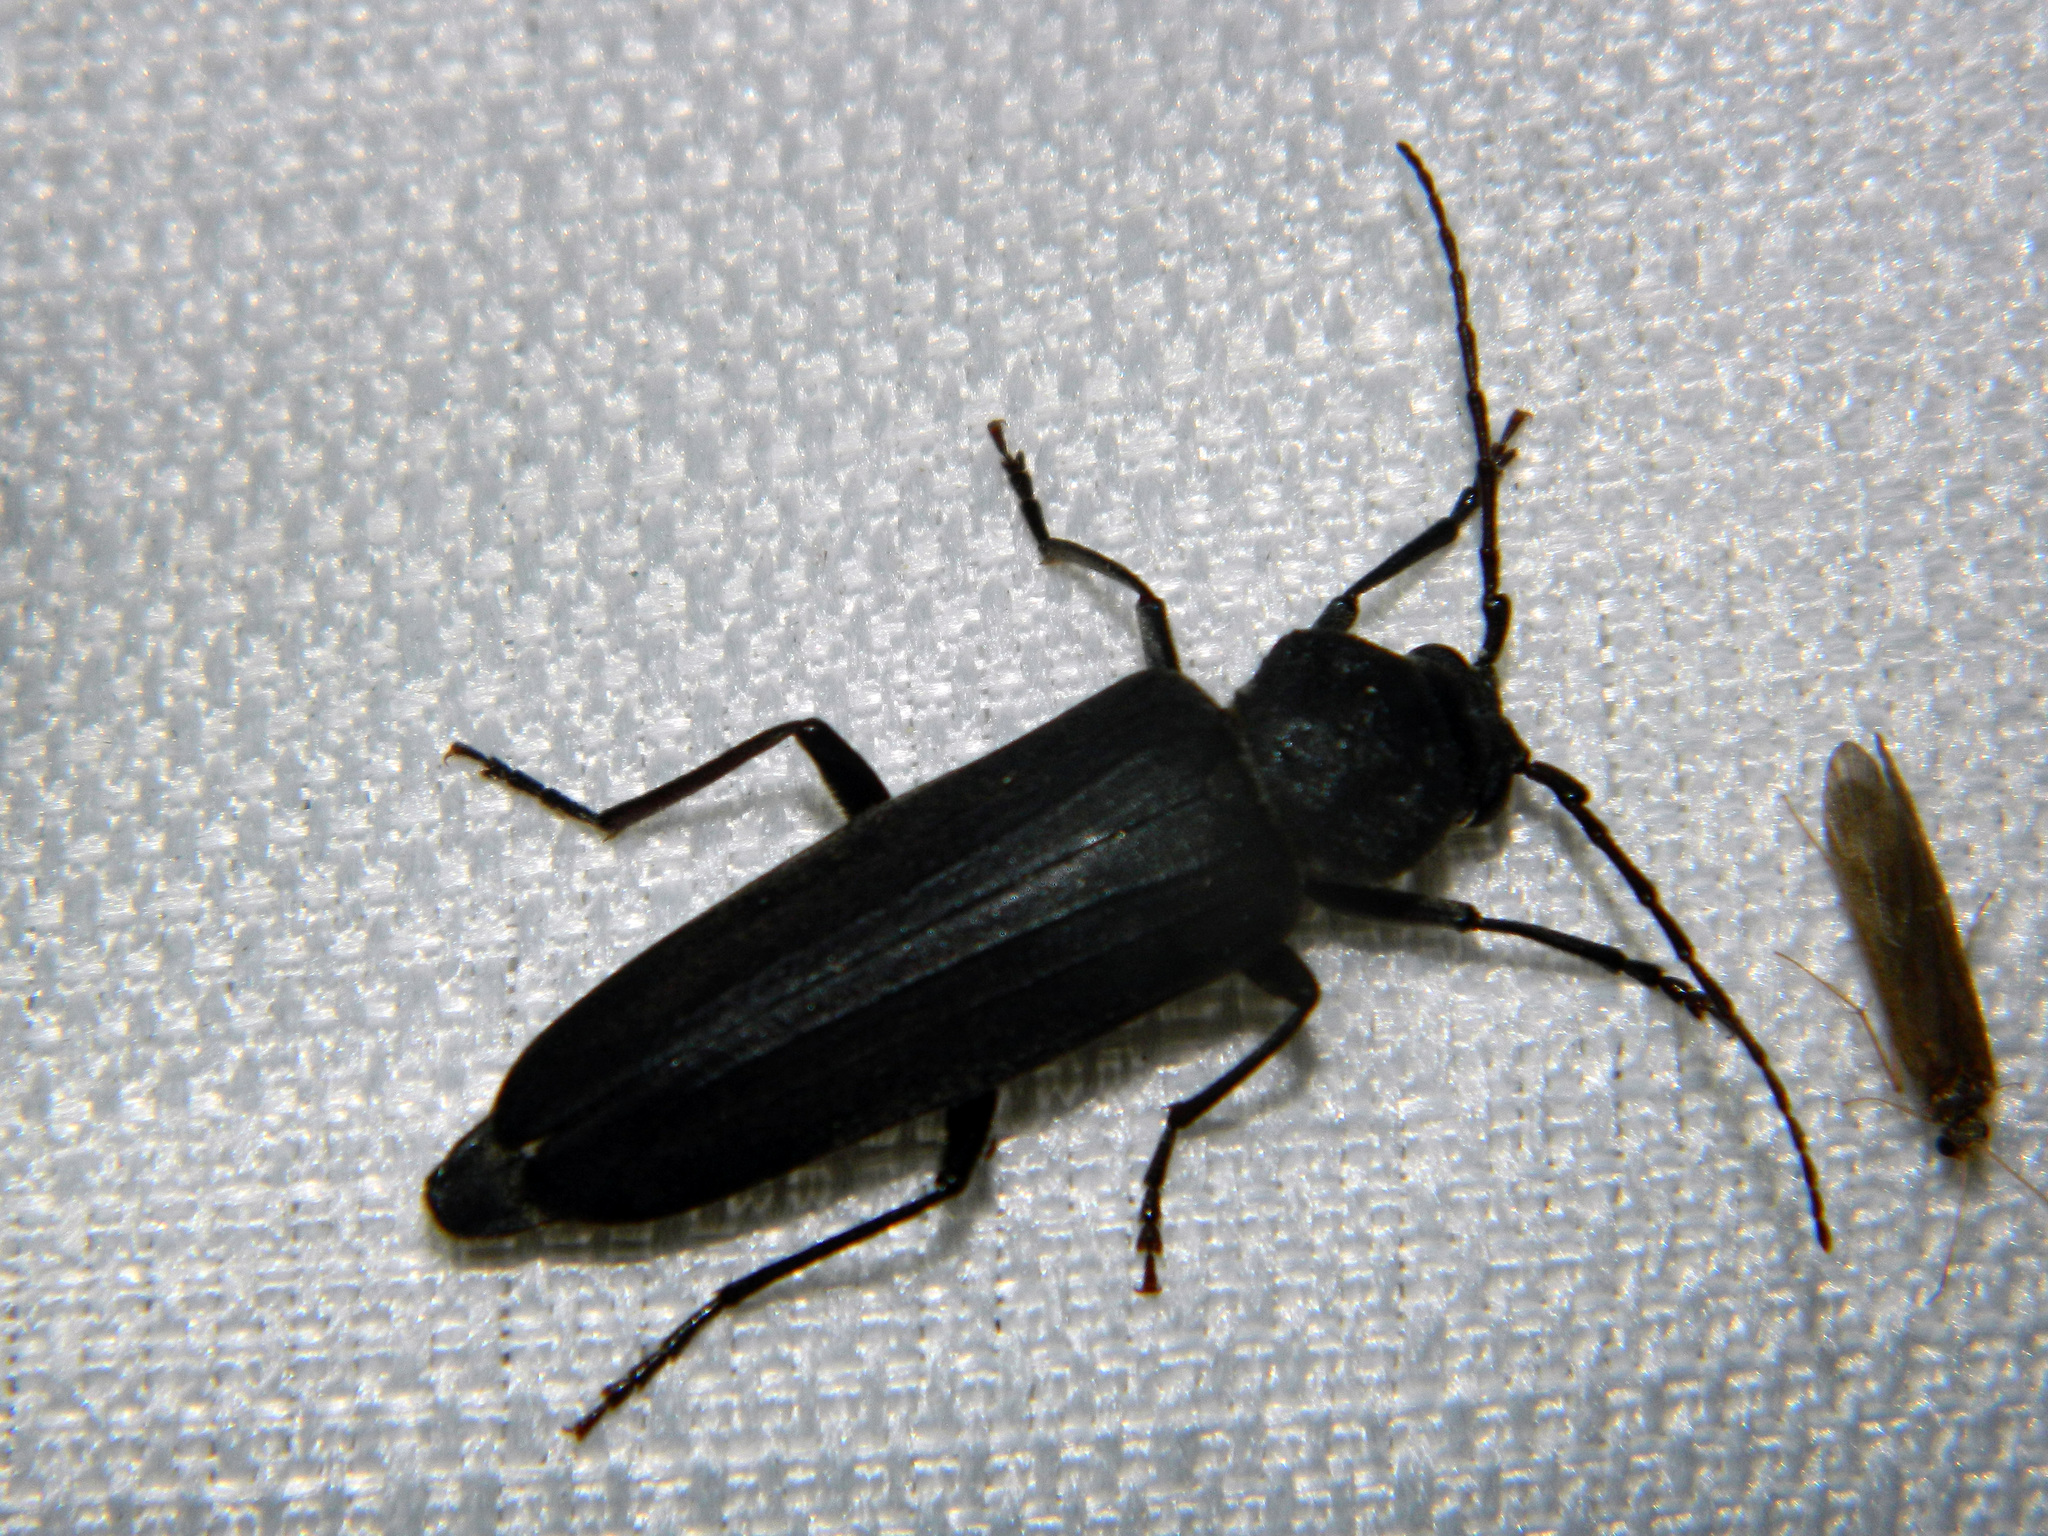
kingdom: Animalia
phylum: Arthropoda
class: Insecta
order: Coleoptera
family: Cerambycidae
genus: Arhopalus
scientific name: Arhopalus foveicollis
